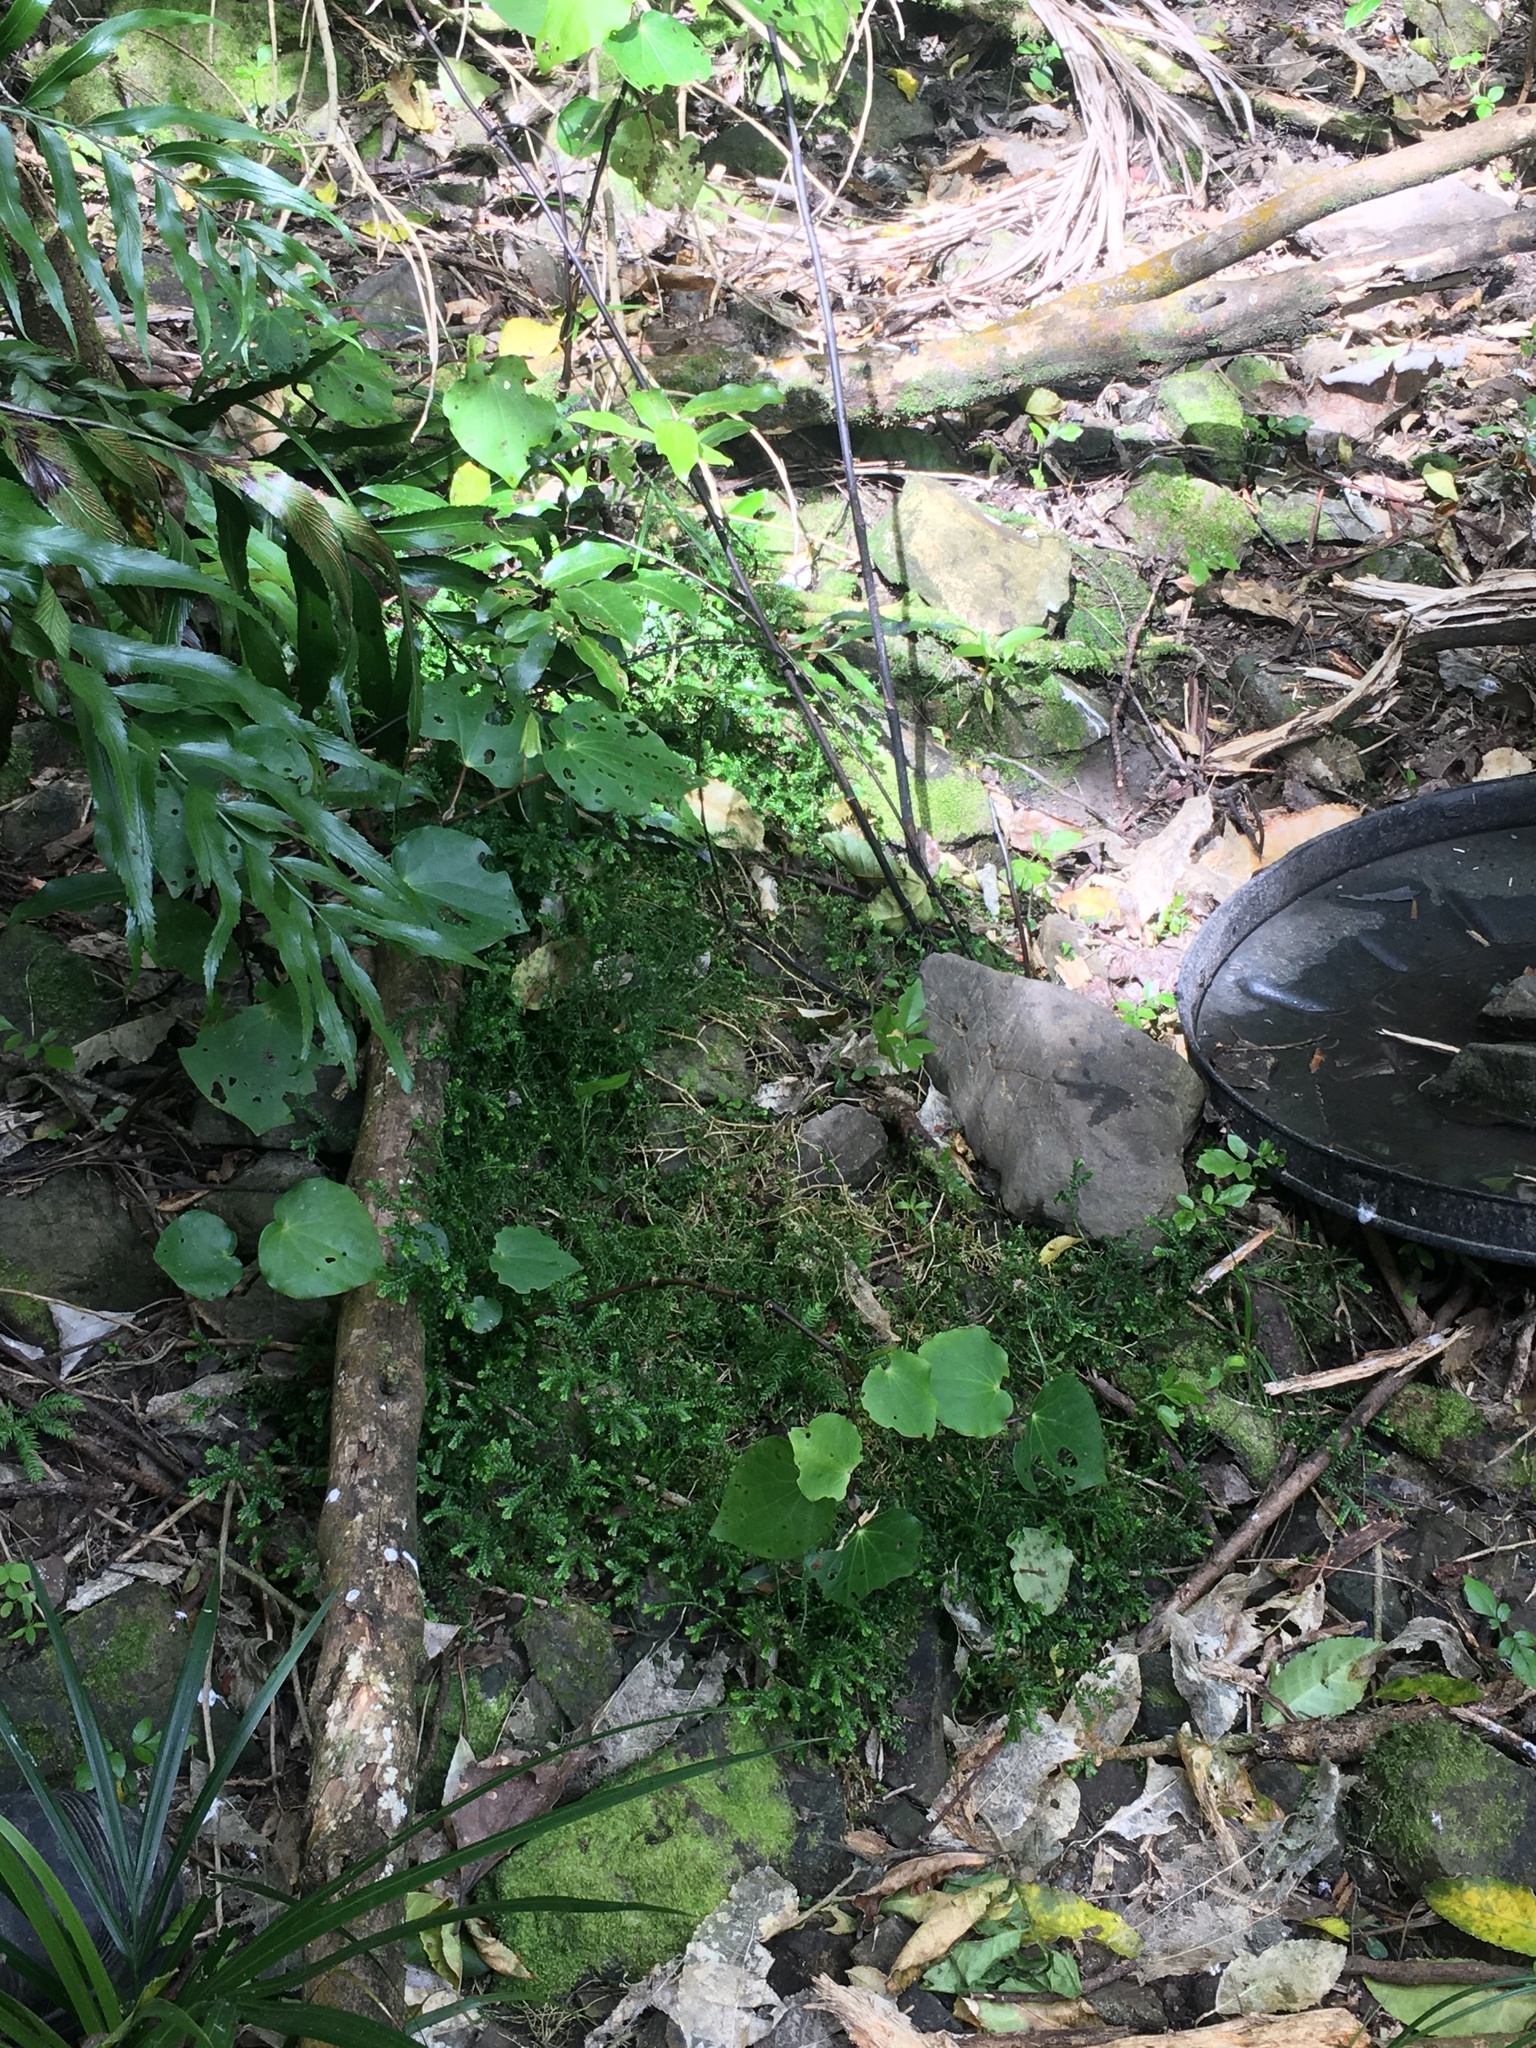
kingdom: Plantae
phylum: Tracheophyta
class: Lycopodiopsida
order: Selaginellales
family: Selaginellaceae
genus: Selaginella
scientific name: Selaginella kraussiana
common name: Krauss' spikemoss
